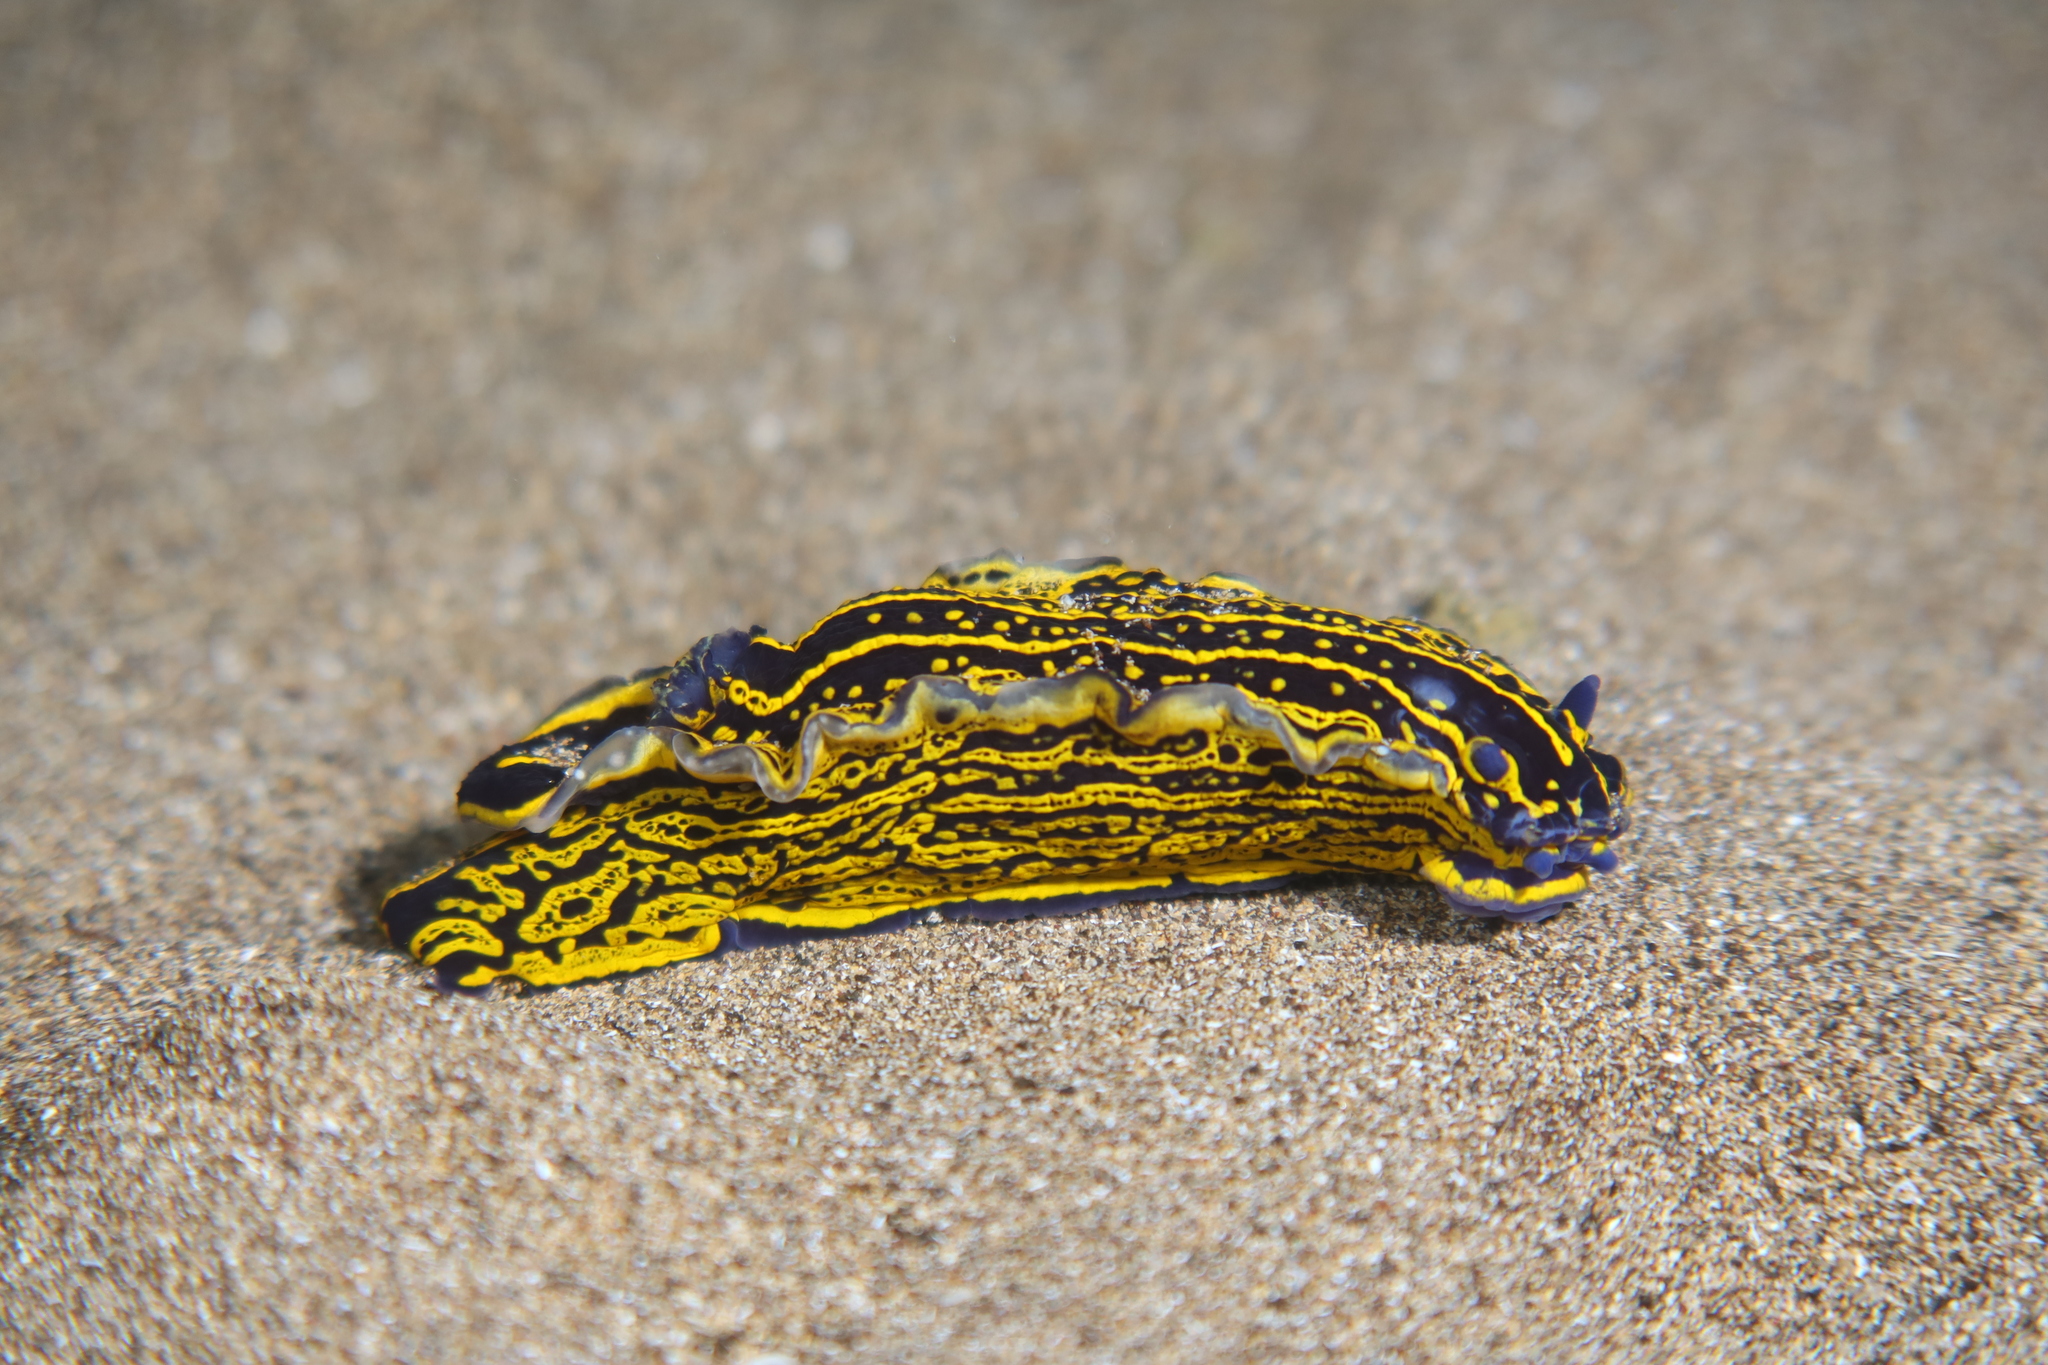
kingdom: Animalia
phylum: Mollusca
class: Gastropoda
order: Nudibranchia
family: Chromodorididae
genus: Felimare
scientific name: Felimare picta
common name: Giant doris
